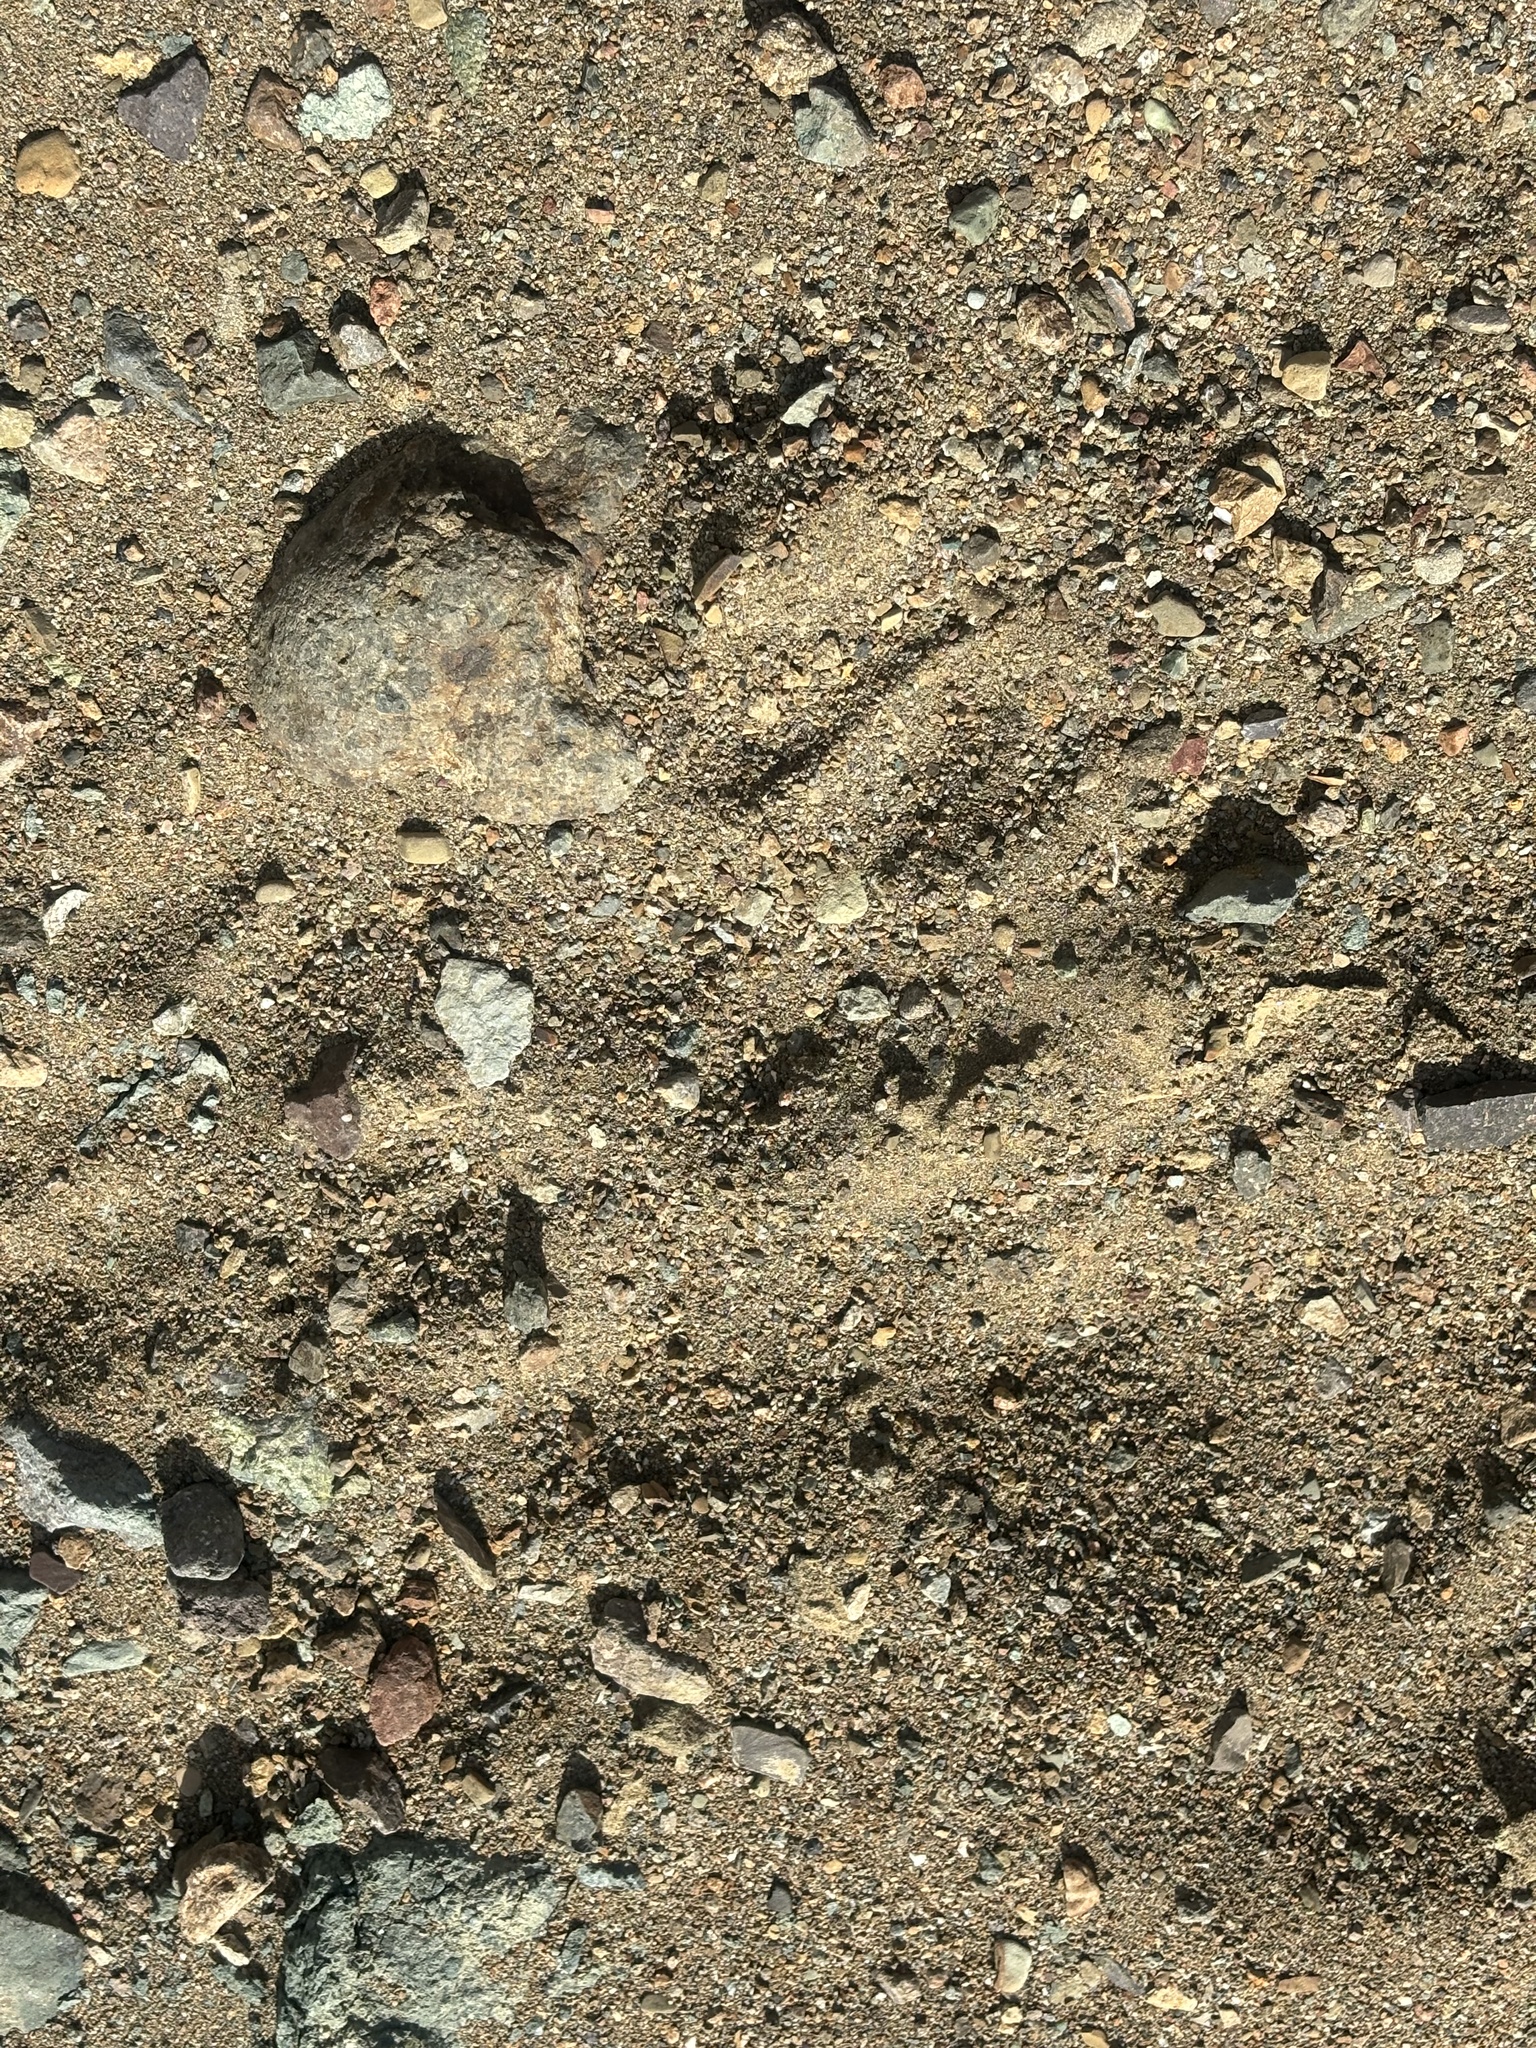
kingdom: Animalia
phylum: Chordata
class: Mammalia
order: Artiodactyla
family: Cervidae
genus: Odocoileus
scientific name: Odocoileus hemionus
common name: Mule deer
